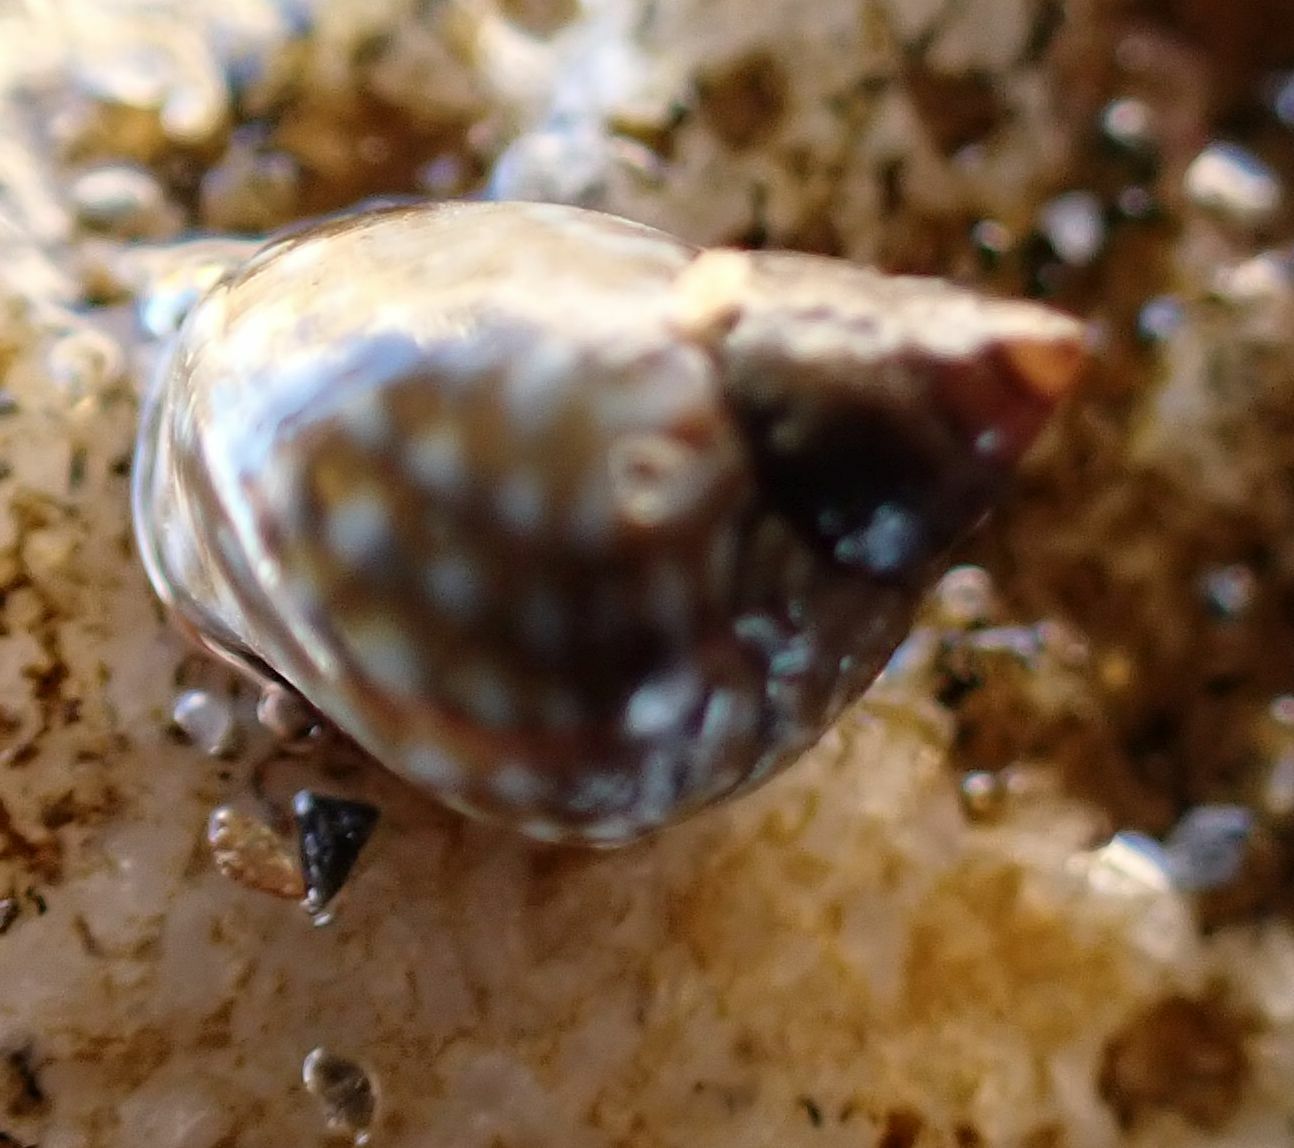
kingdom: Animalia
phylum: Mollusca
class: Gastropoda
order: Littorinimorpha
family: Littorinidae
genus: Echinolittorina
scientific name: Echinolittorina punctata
